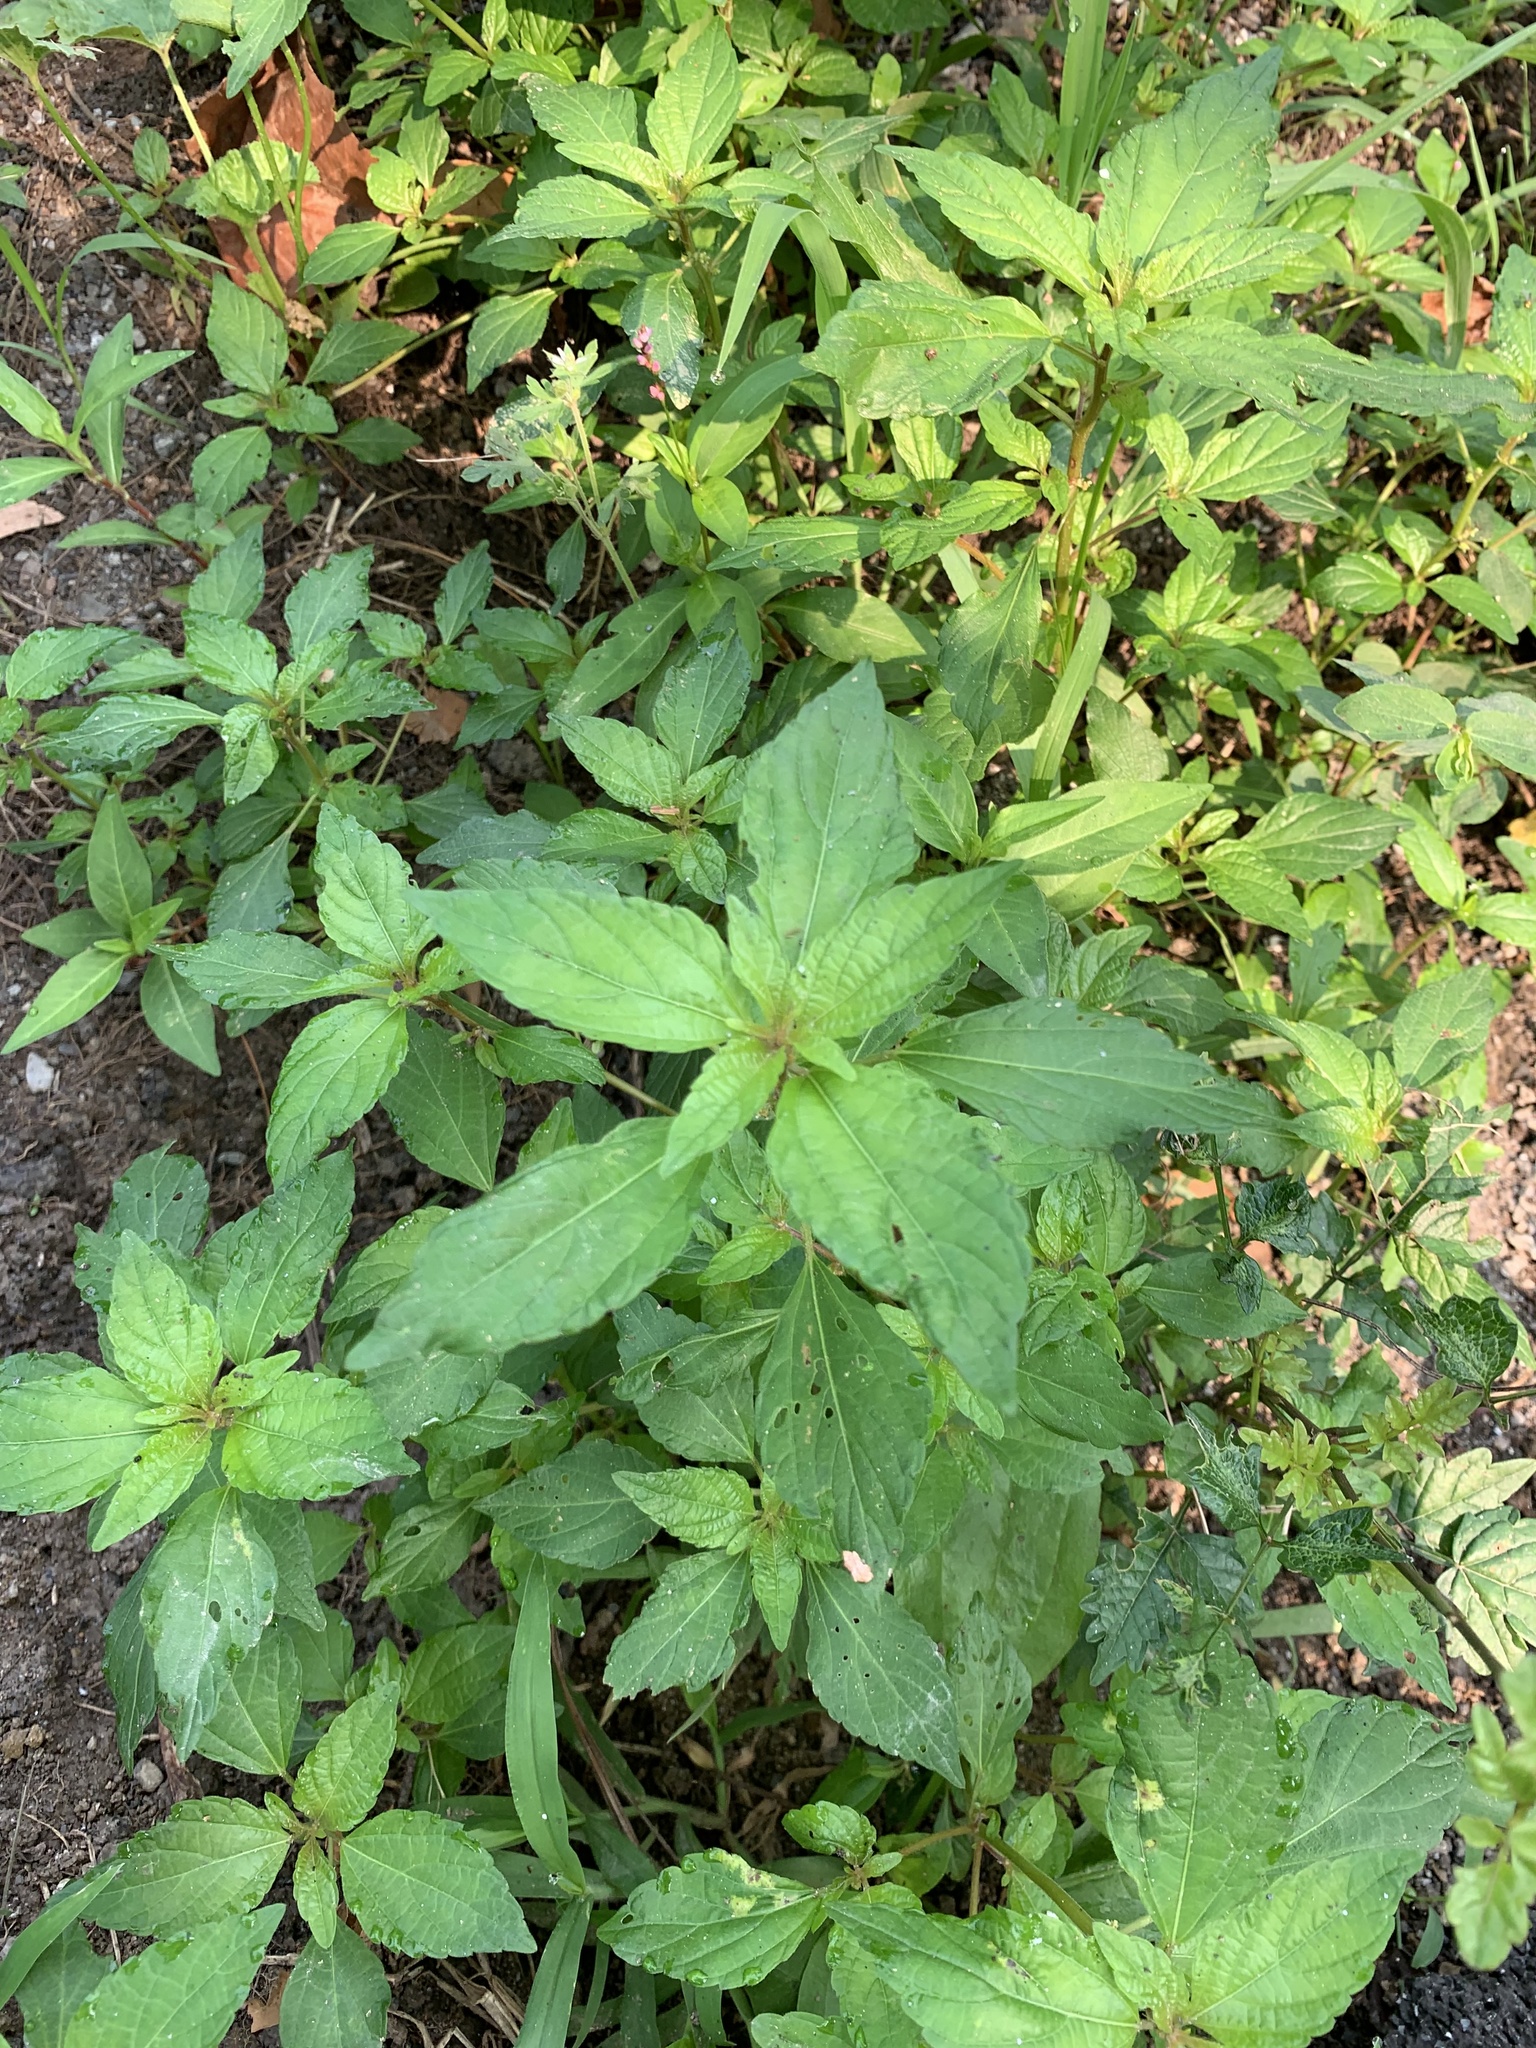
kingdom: Plantae
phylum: Tracheophyta
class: Magnoliopsida
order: Malpighiales
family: Euphorbiaceae
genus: Acalypha
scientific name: Acalypha rhomboidea
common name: Rhombic copperleaf
